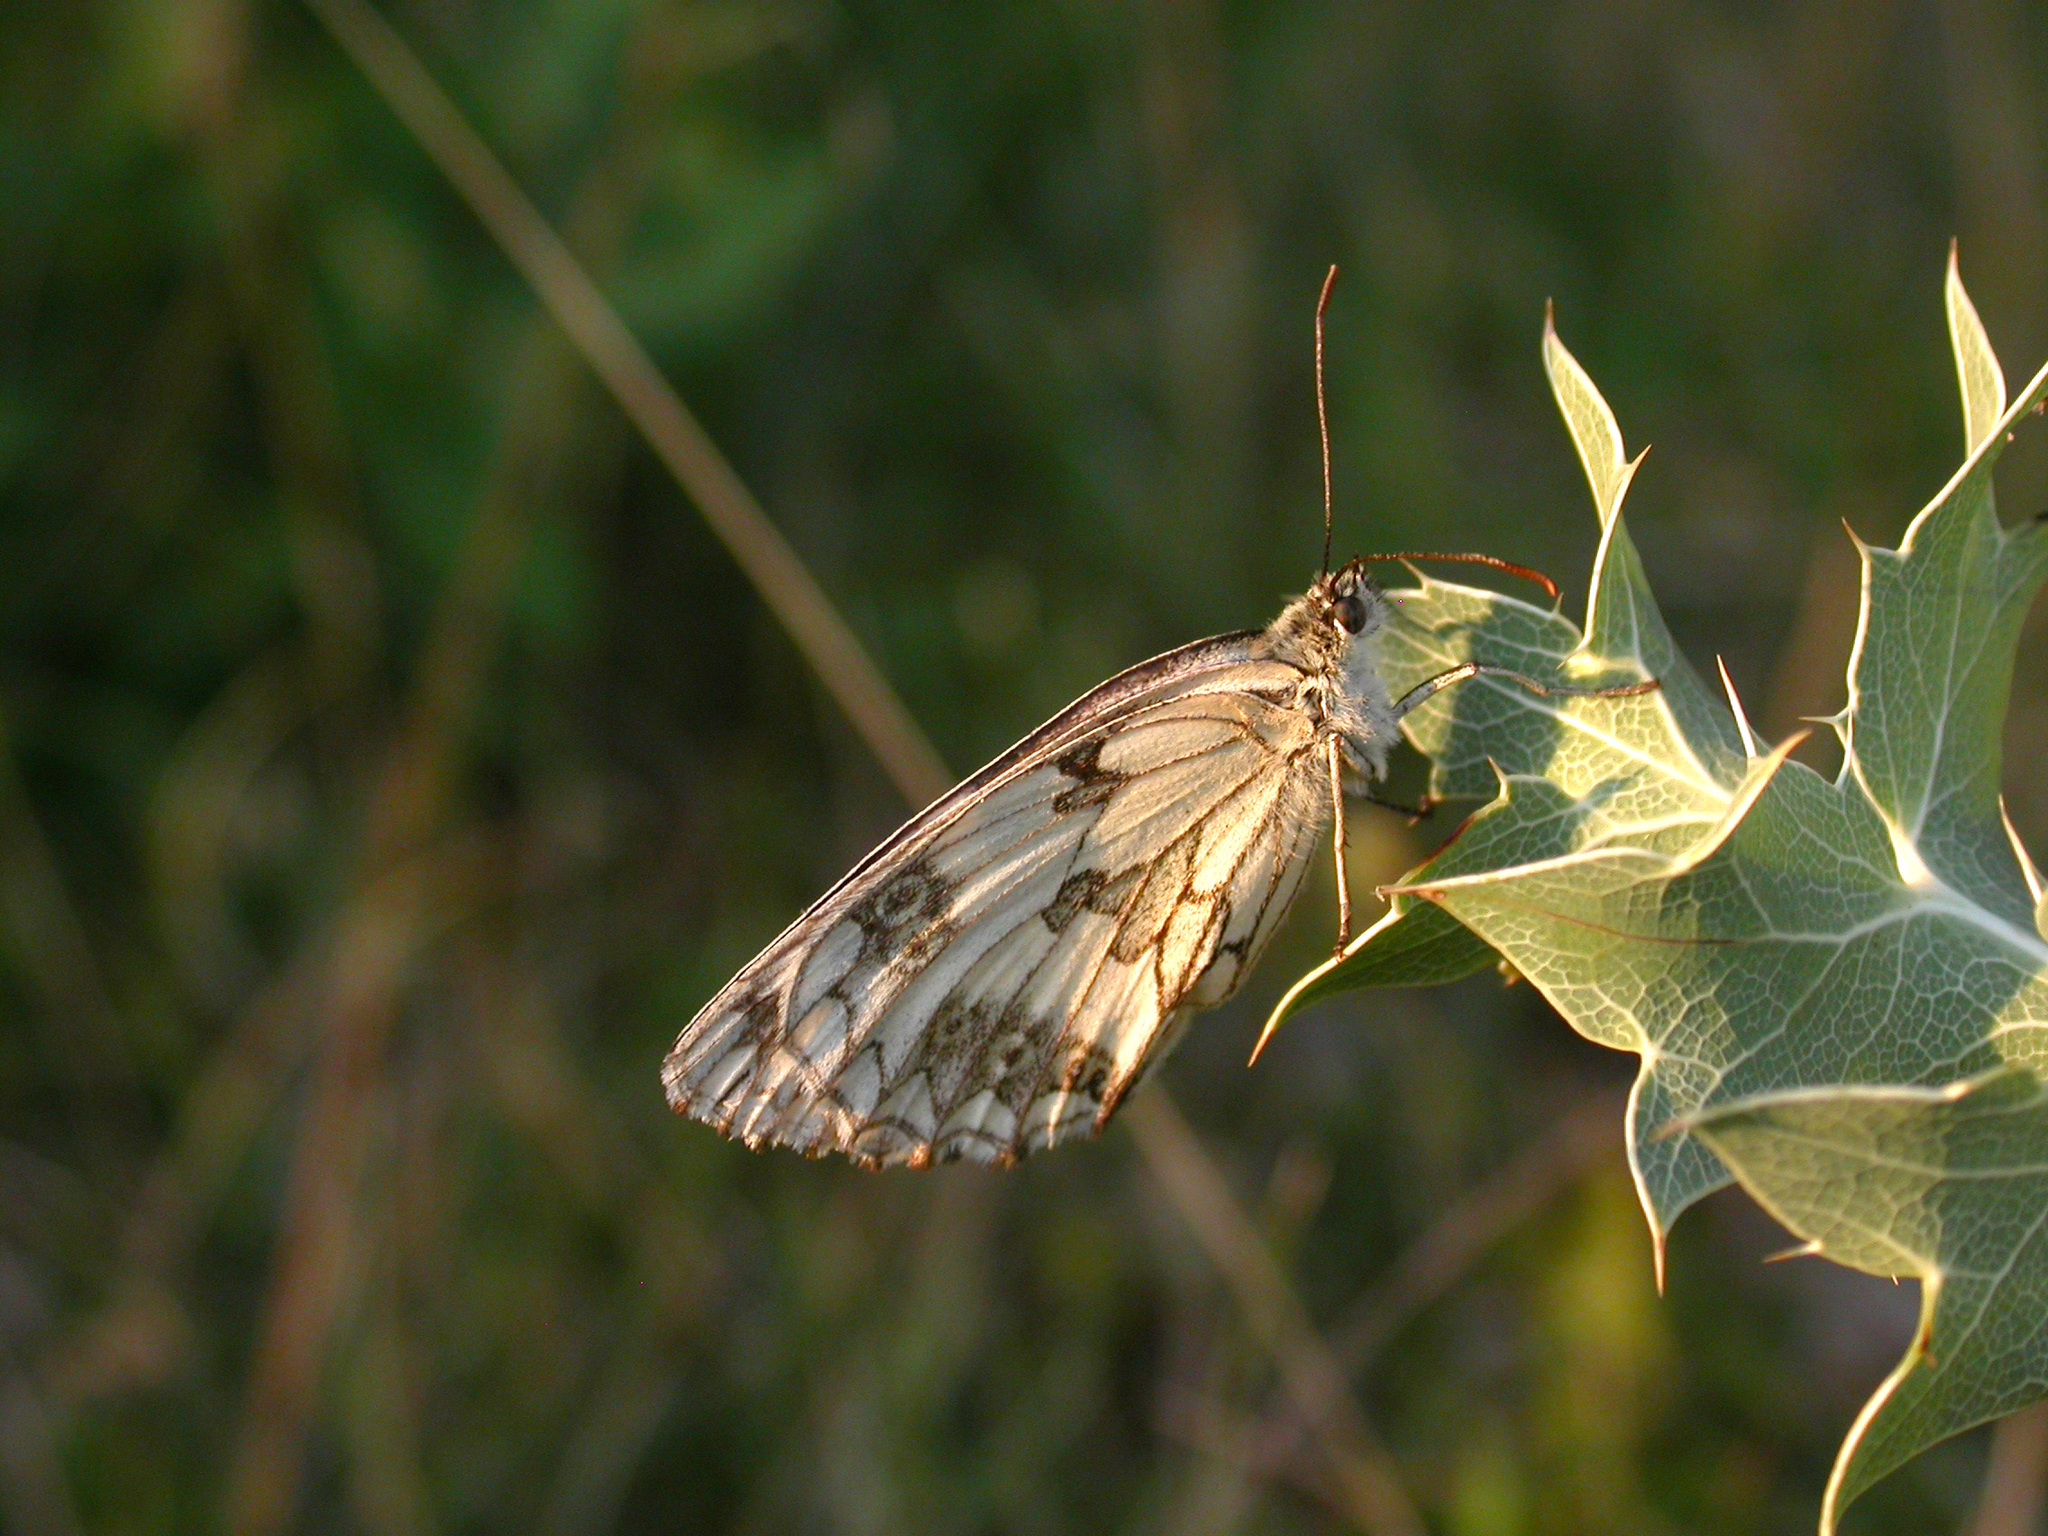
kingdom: Animalia
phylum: Arthropoda
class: Insecta
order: Lepidoptera
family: Nymphalidae
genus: Melanargia
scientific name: Melanargia galathea
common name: Marbled white
